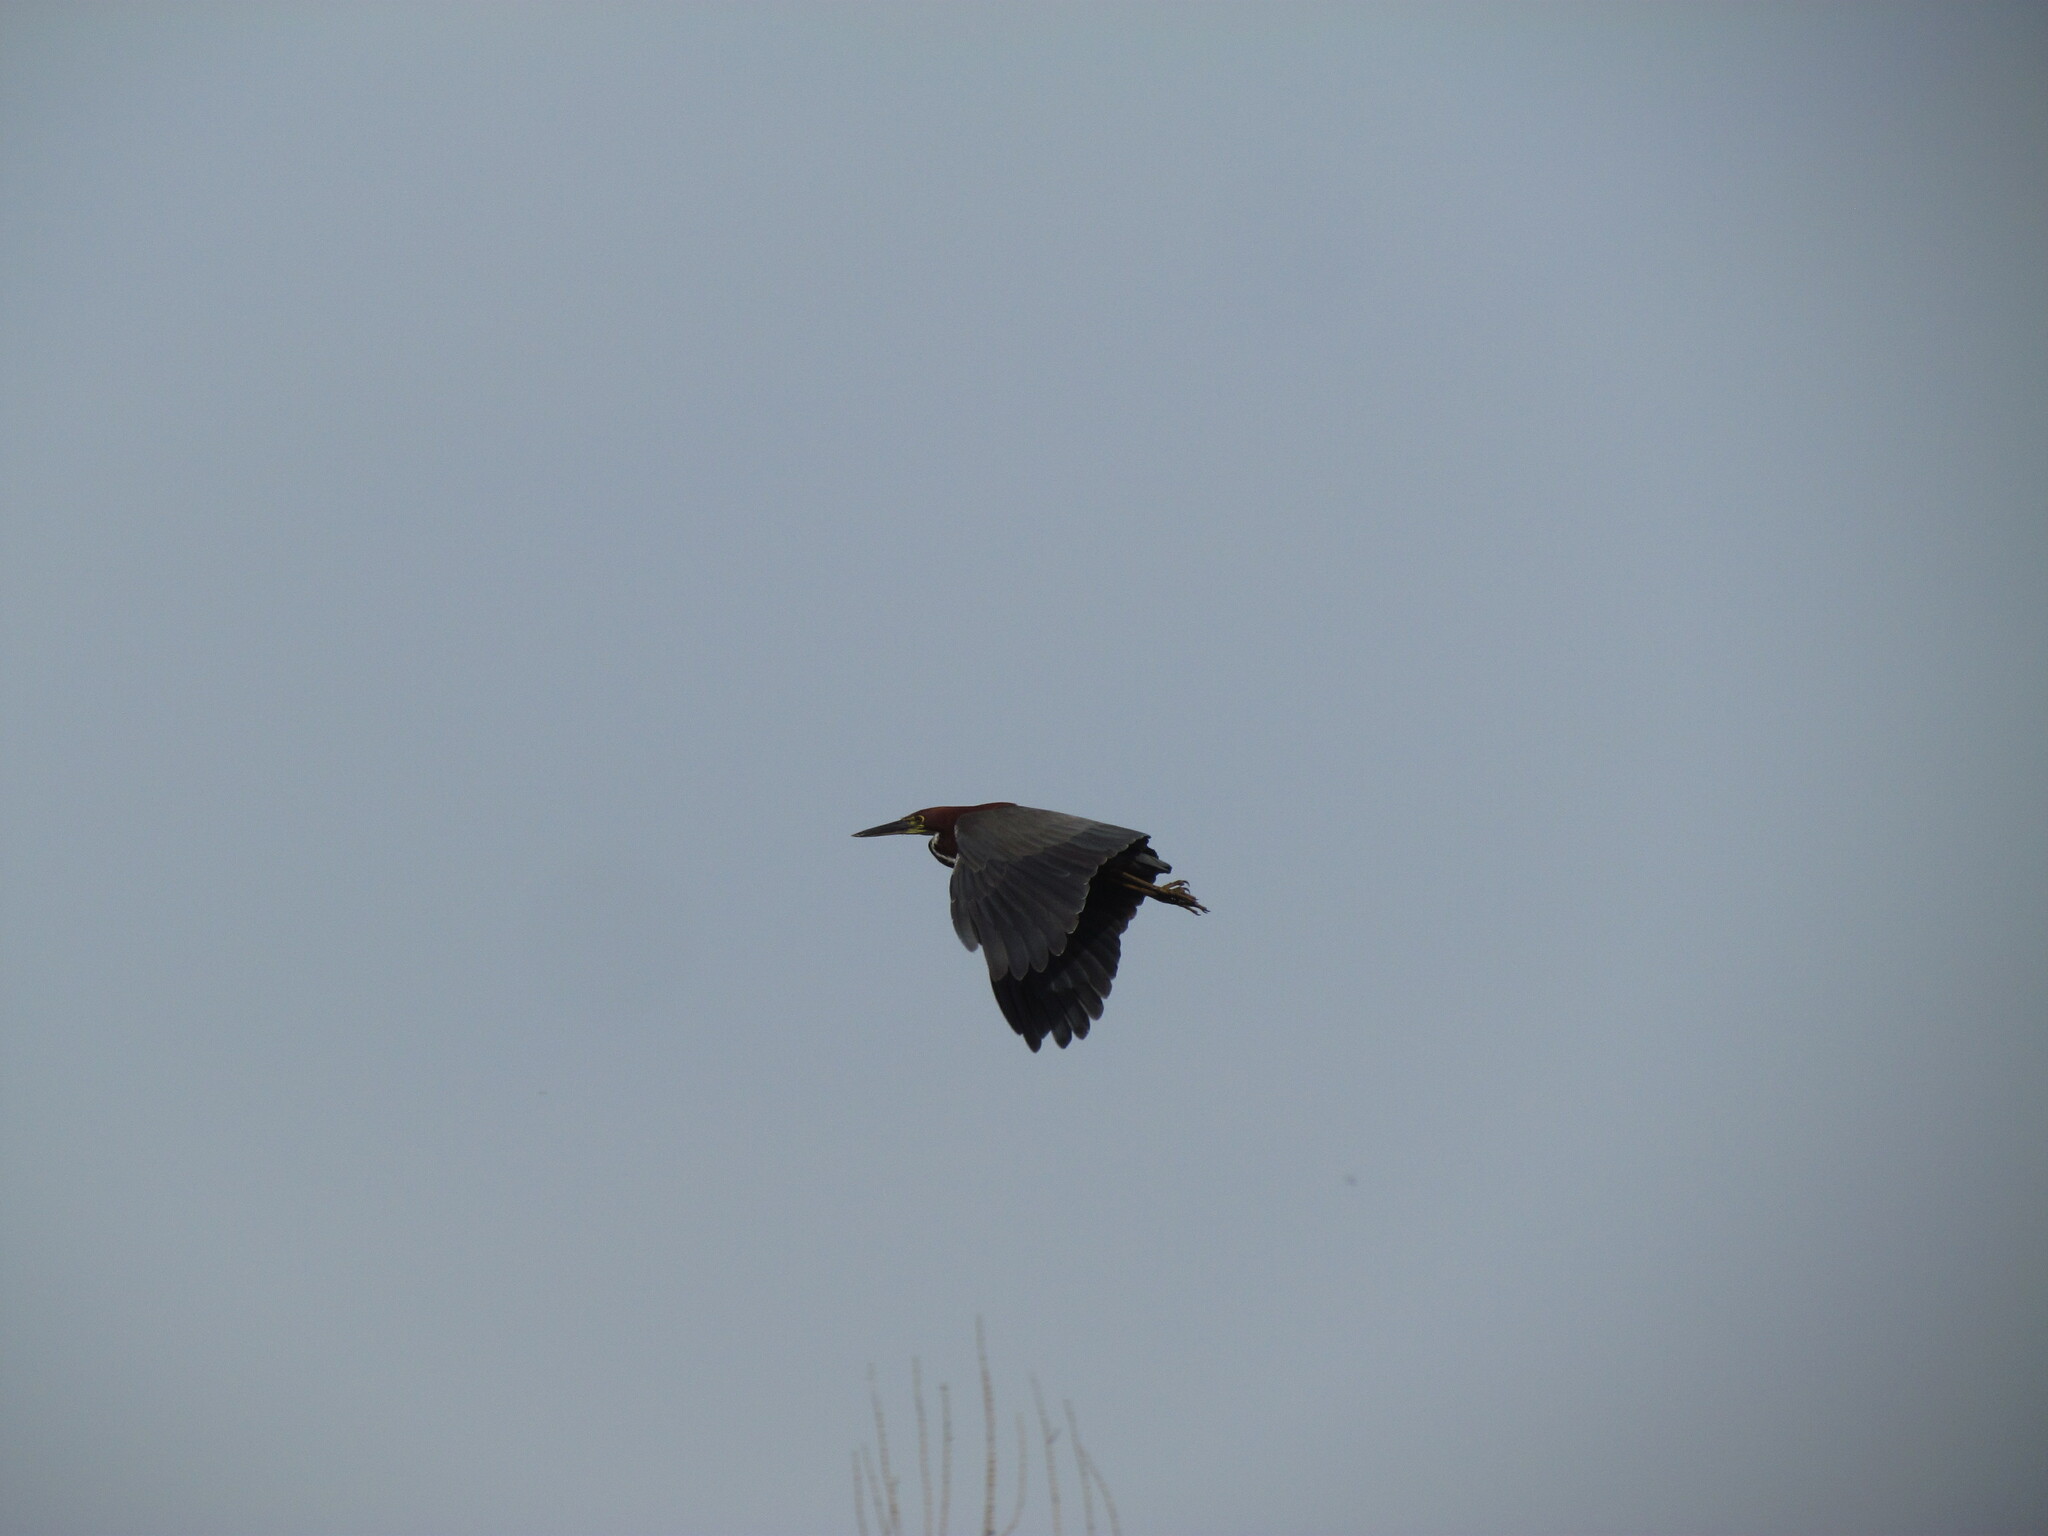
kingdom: Animalia
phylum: Chordata
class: Aves
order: Pelecaniformes
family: Ardeidae
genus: Tigrisoma
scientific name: Tigrisoma lineatum
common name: Rufescent tiger-heron
